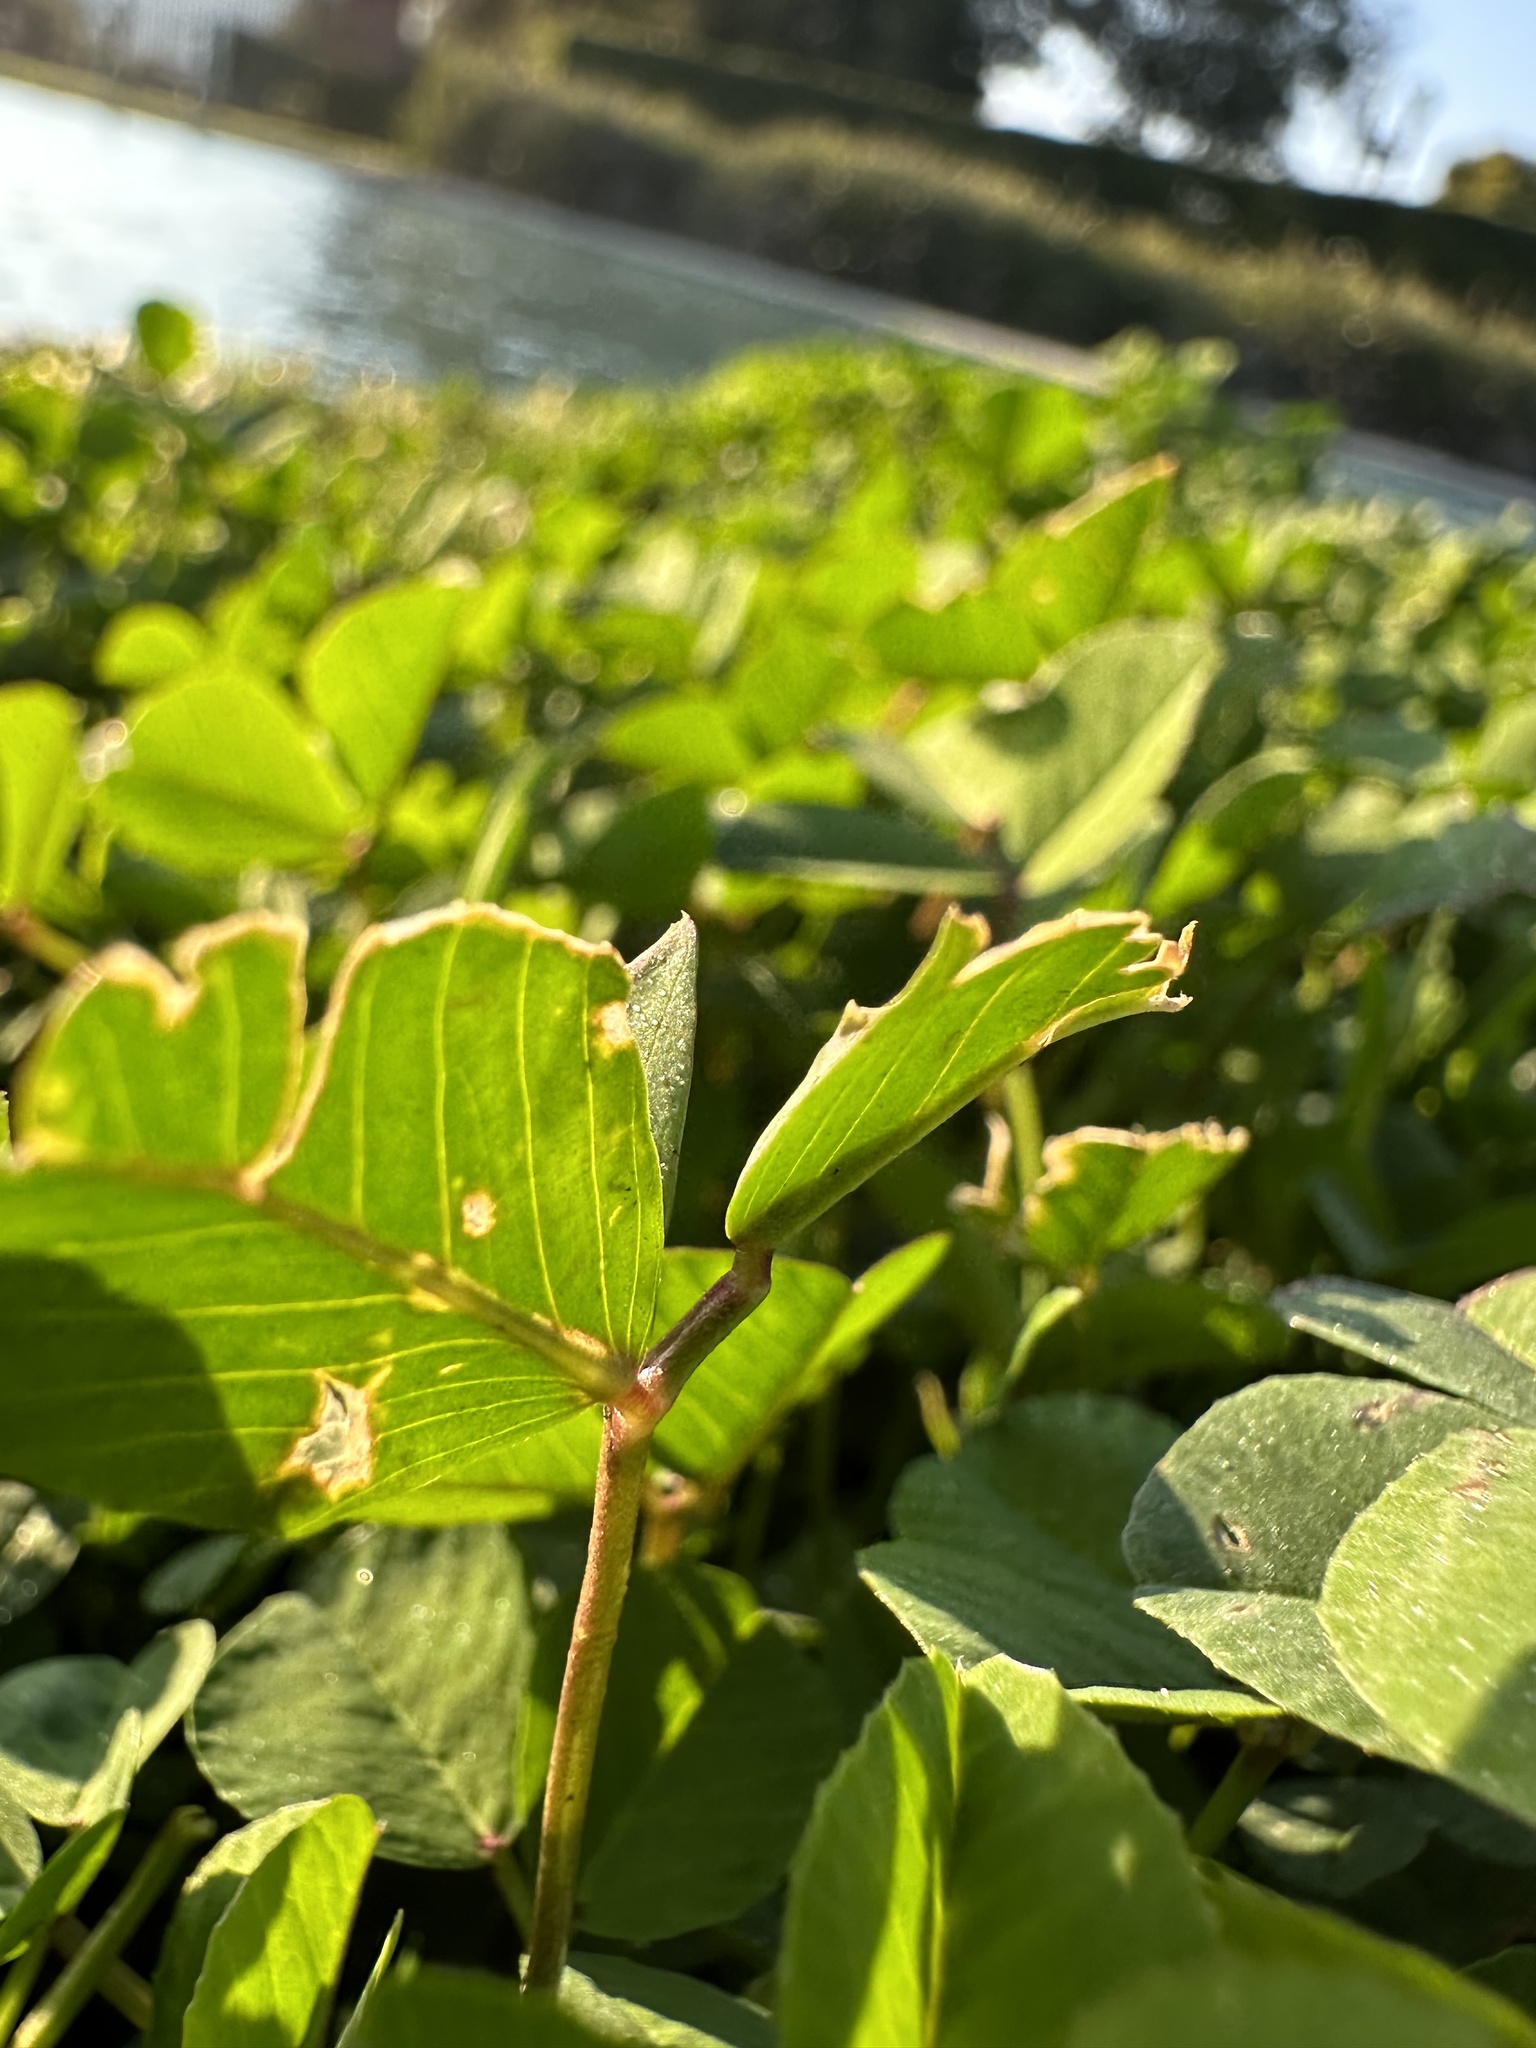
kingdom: Plantae
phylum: Tracheophyta
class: Magnoliopsida
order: Fabales
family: Fabaceae
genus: Medicago
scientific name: Medicago polymorpha
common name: Burclover
